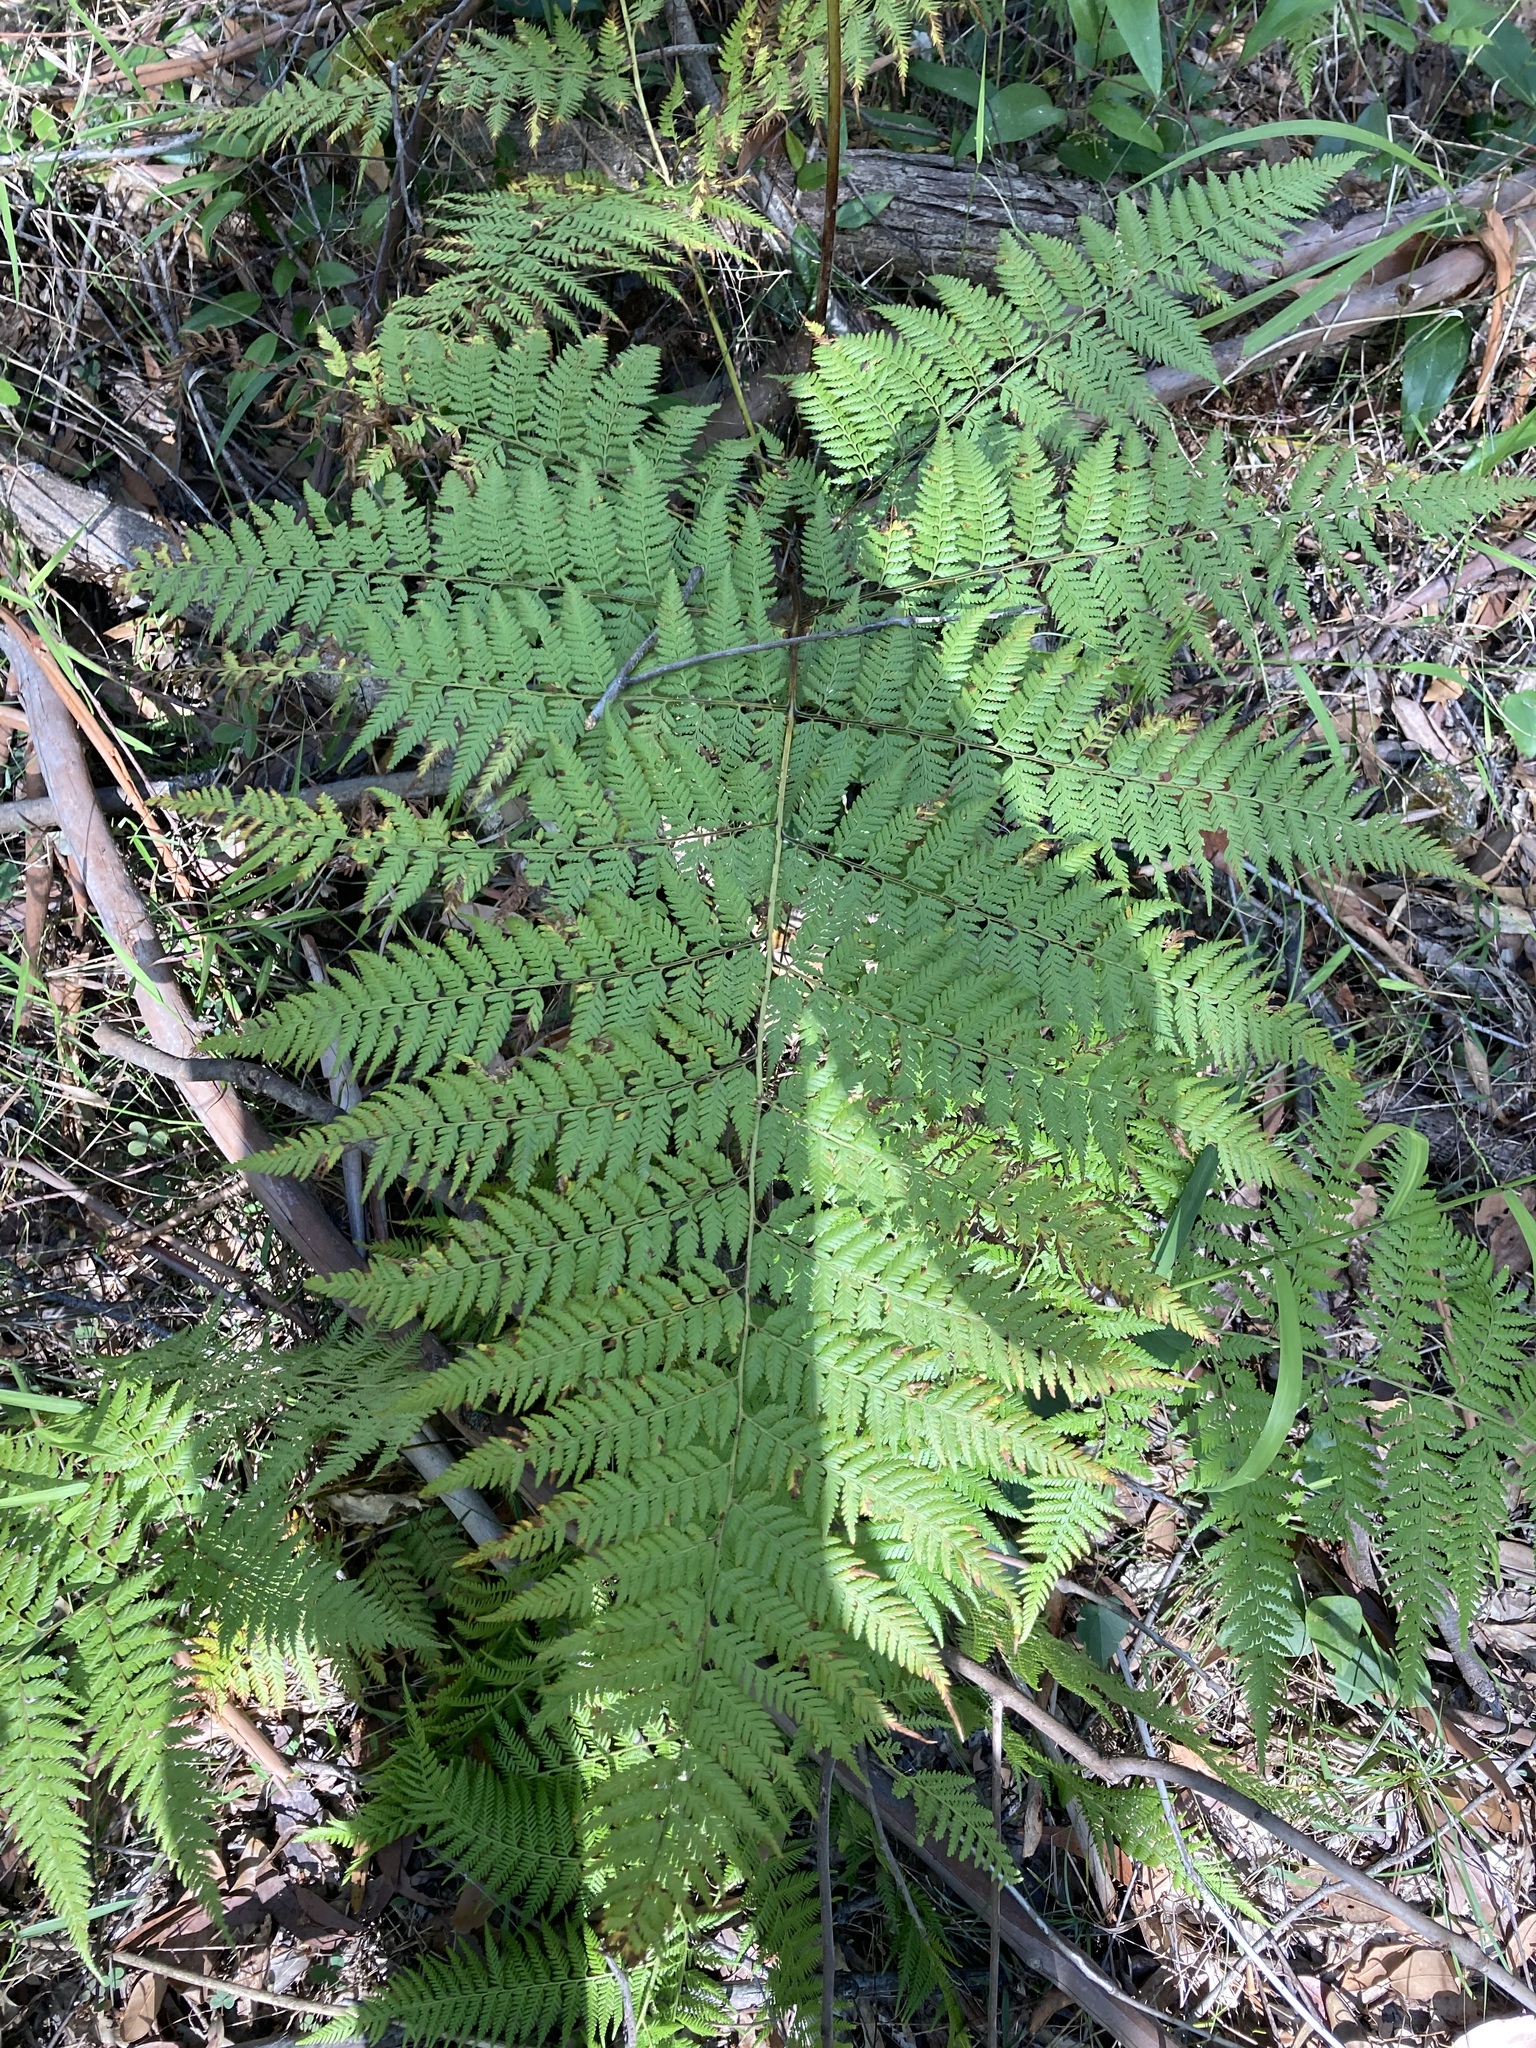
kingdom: Plantae
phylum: Tracheophyta
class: Polypodiopsida
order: Cyatheales
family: Dicksoniaceae
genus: Calochlaena
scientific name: Calochlaena dubia
